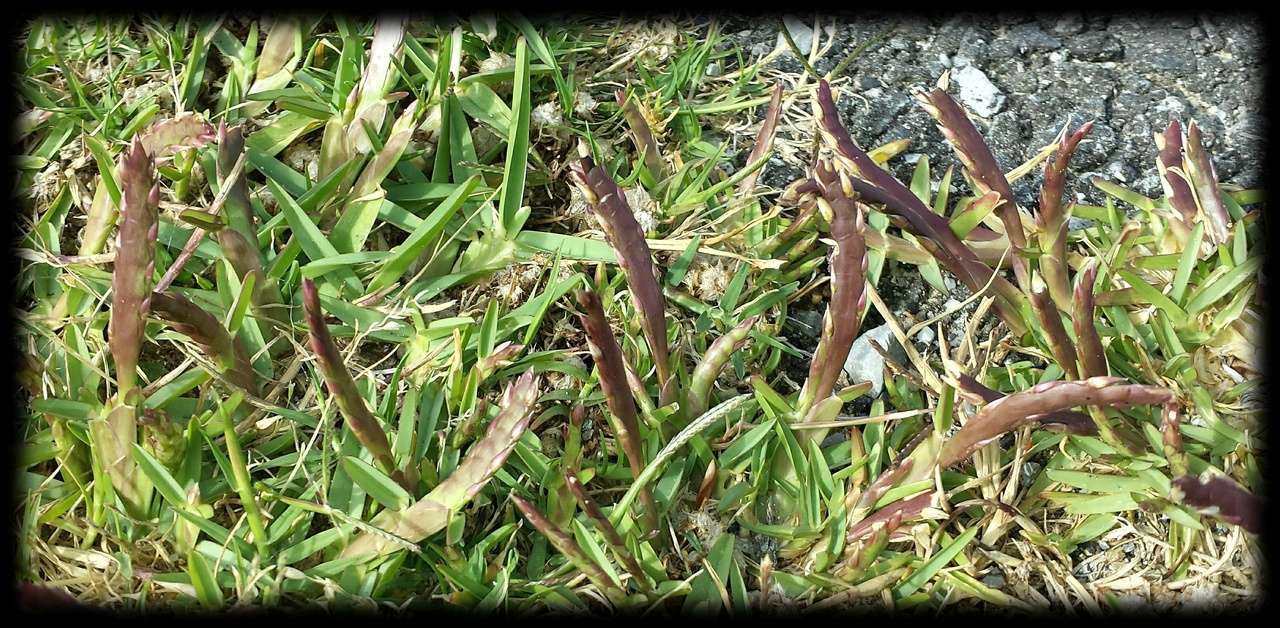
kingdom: Plantae
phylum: Tracheophyta
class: Liliopsida
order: Poales
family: Poaceae
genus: Stenotaphrum
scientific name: Stenotaphrum secundatum
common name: St. augustine grass
